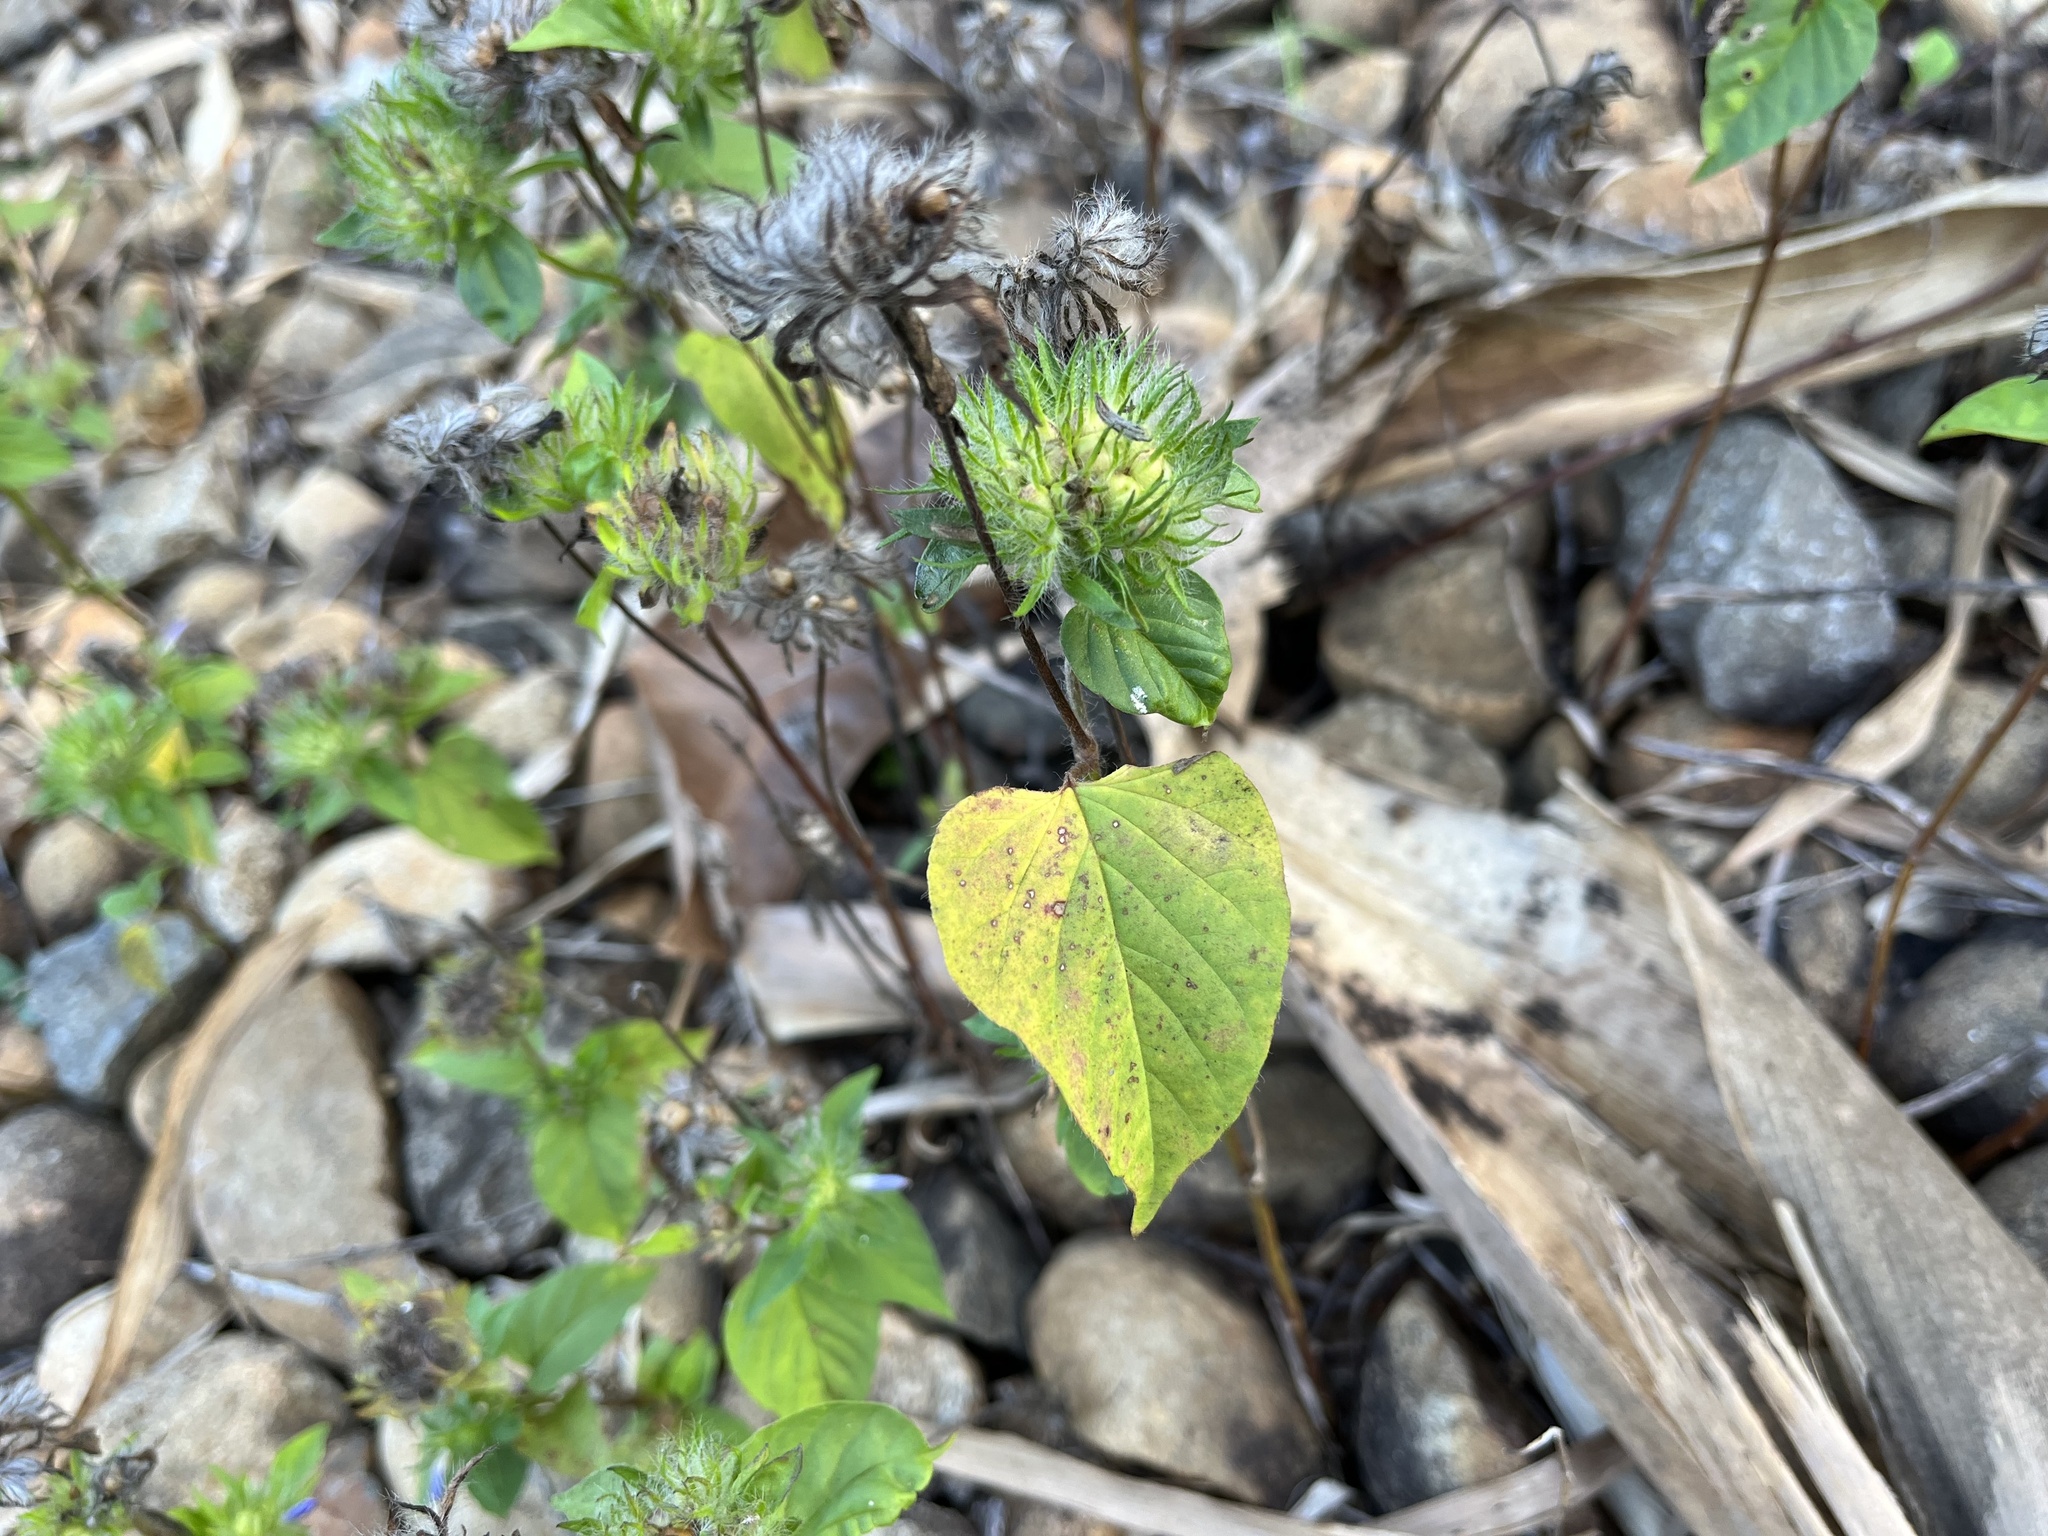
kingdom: Plantae
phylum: Tracheophyta
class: Magnoliopsida
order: Solanales
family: Convolvulaceae
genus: Jacquemontia
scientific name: Jacquemontia tamnifolia
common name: Hairy clustervine
